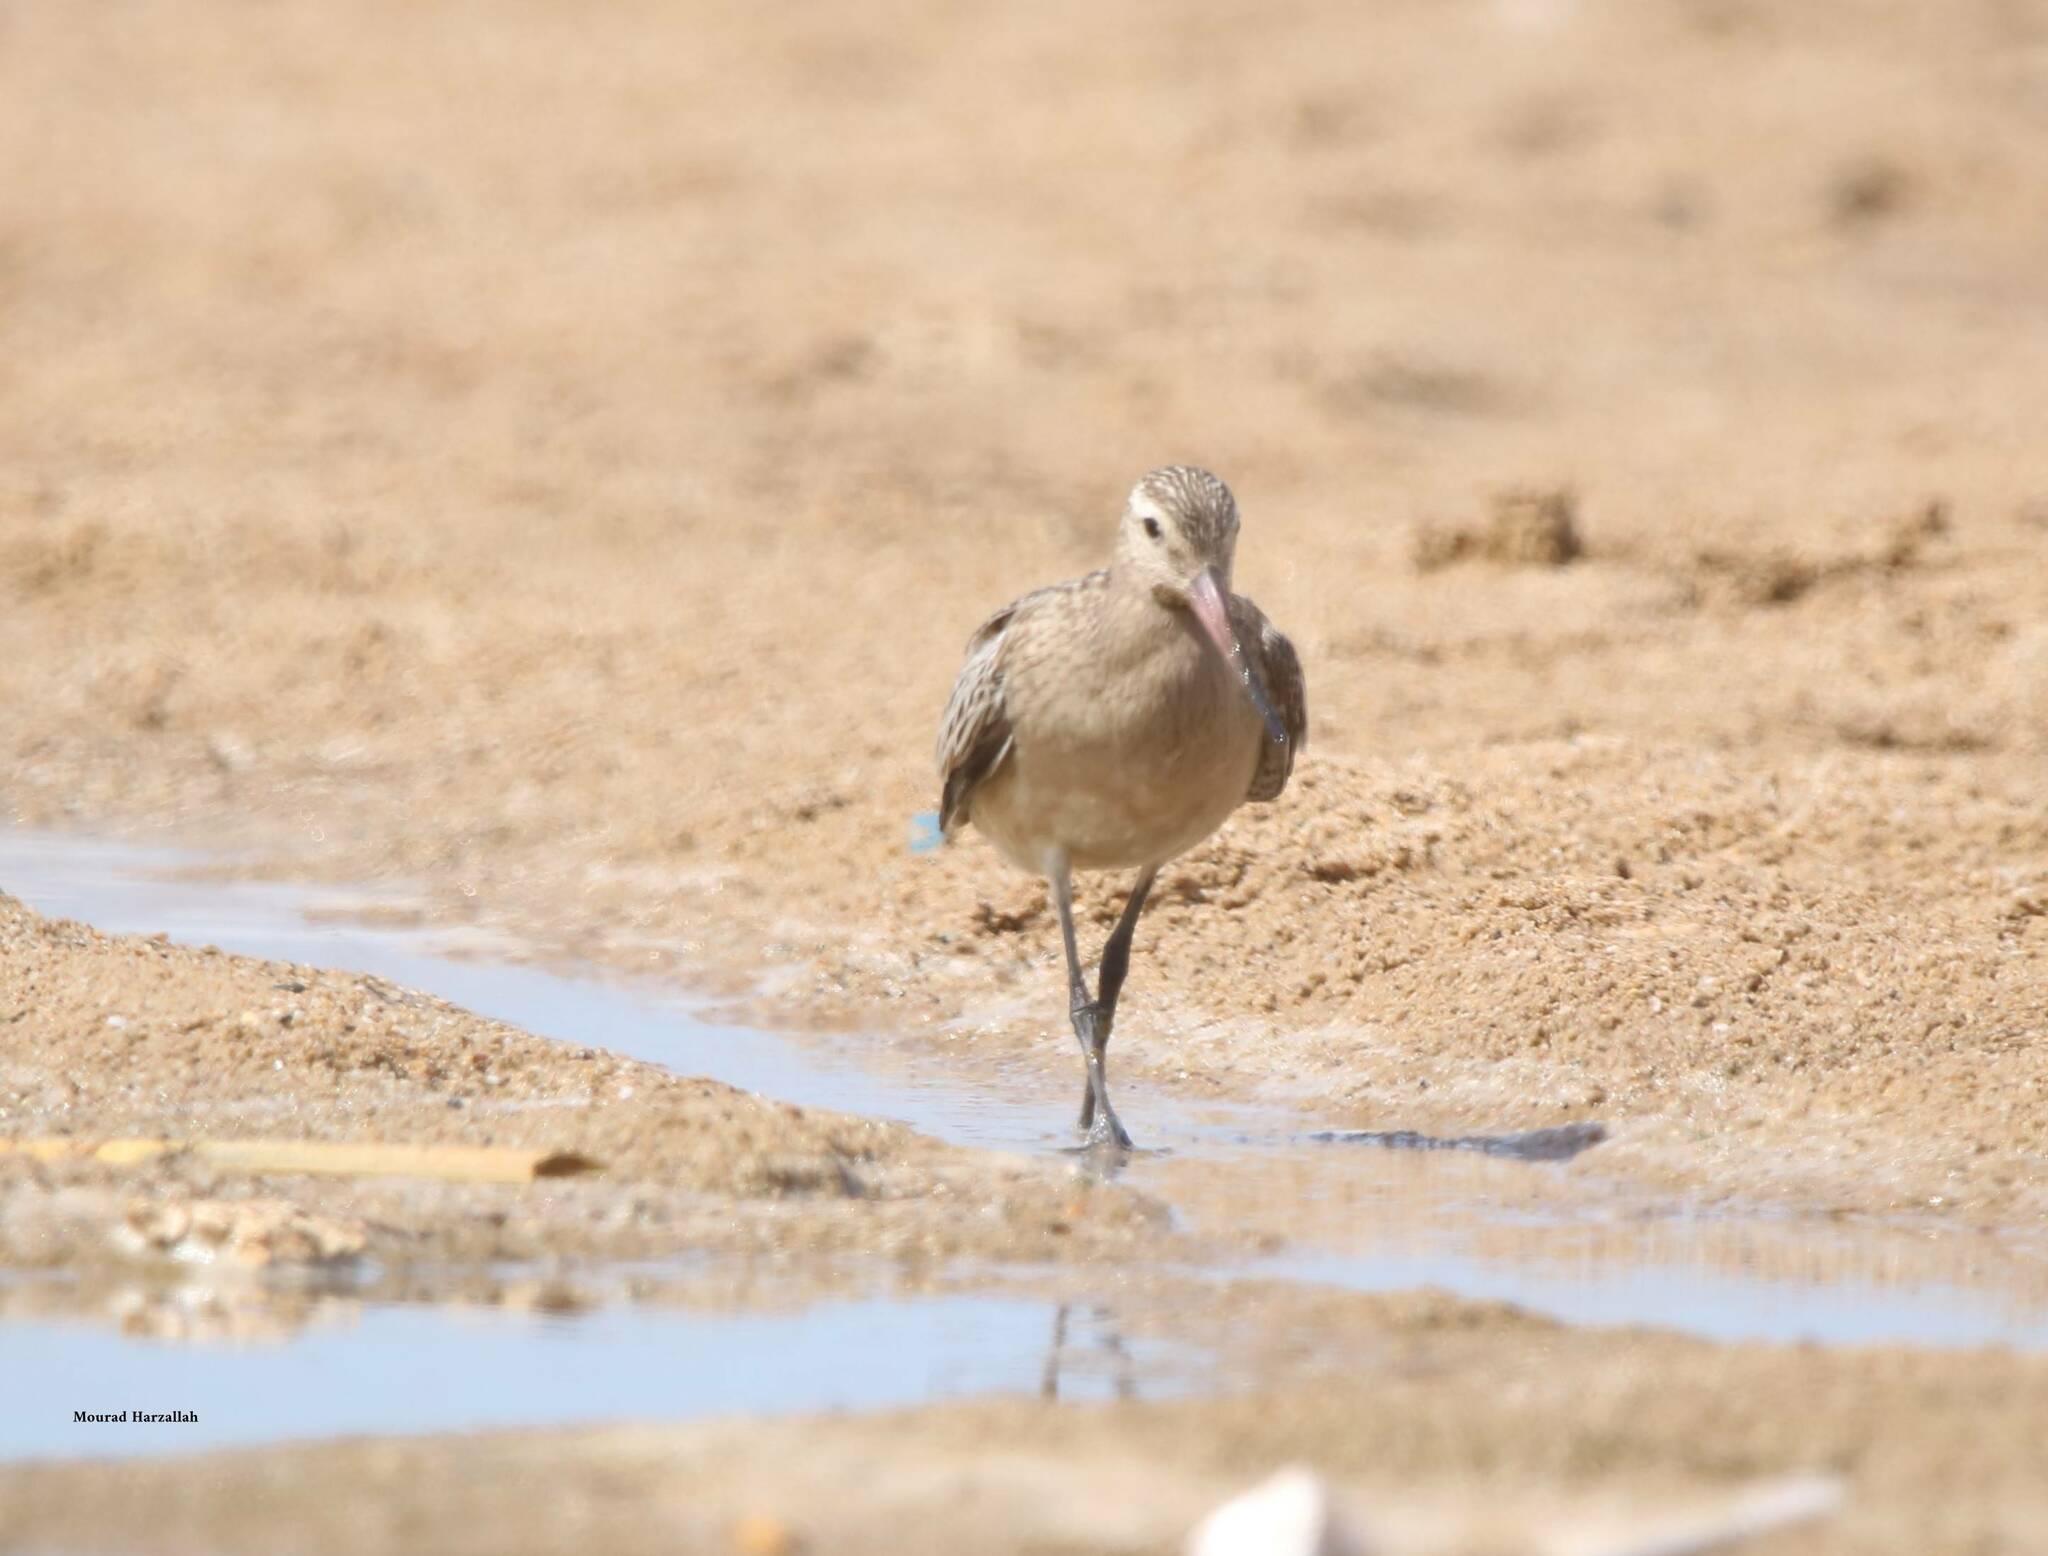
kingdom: Animalia
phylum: Chordata
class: Aves
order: Charadriiformes
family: Scolopacidae
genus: Limosa
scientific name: Limosa lapponica
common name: Bar-tailed godwit
